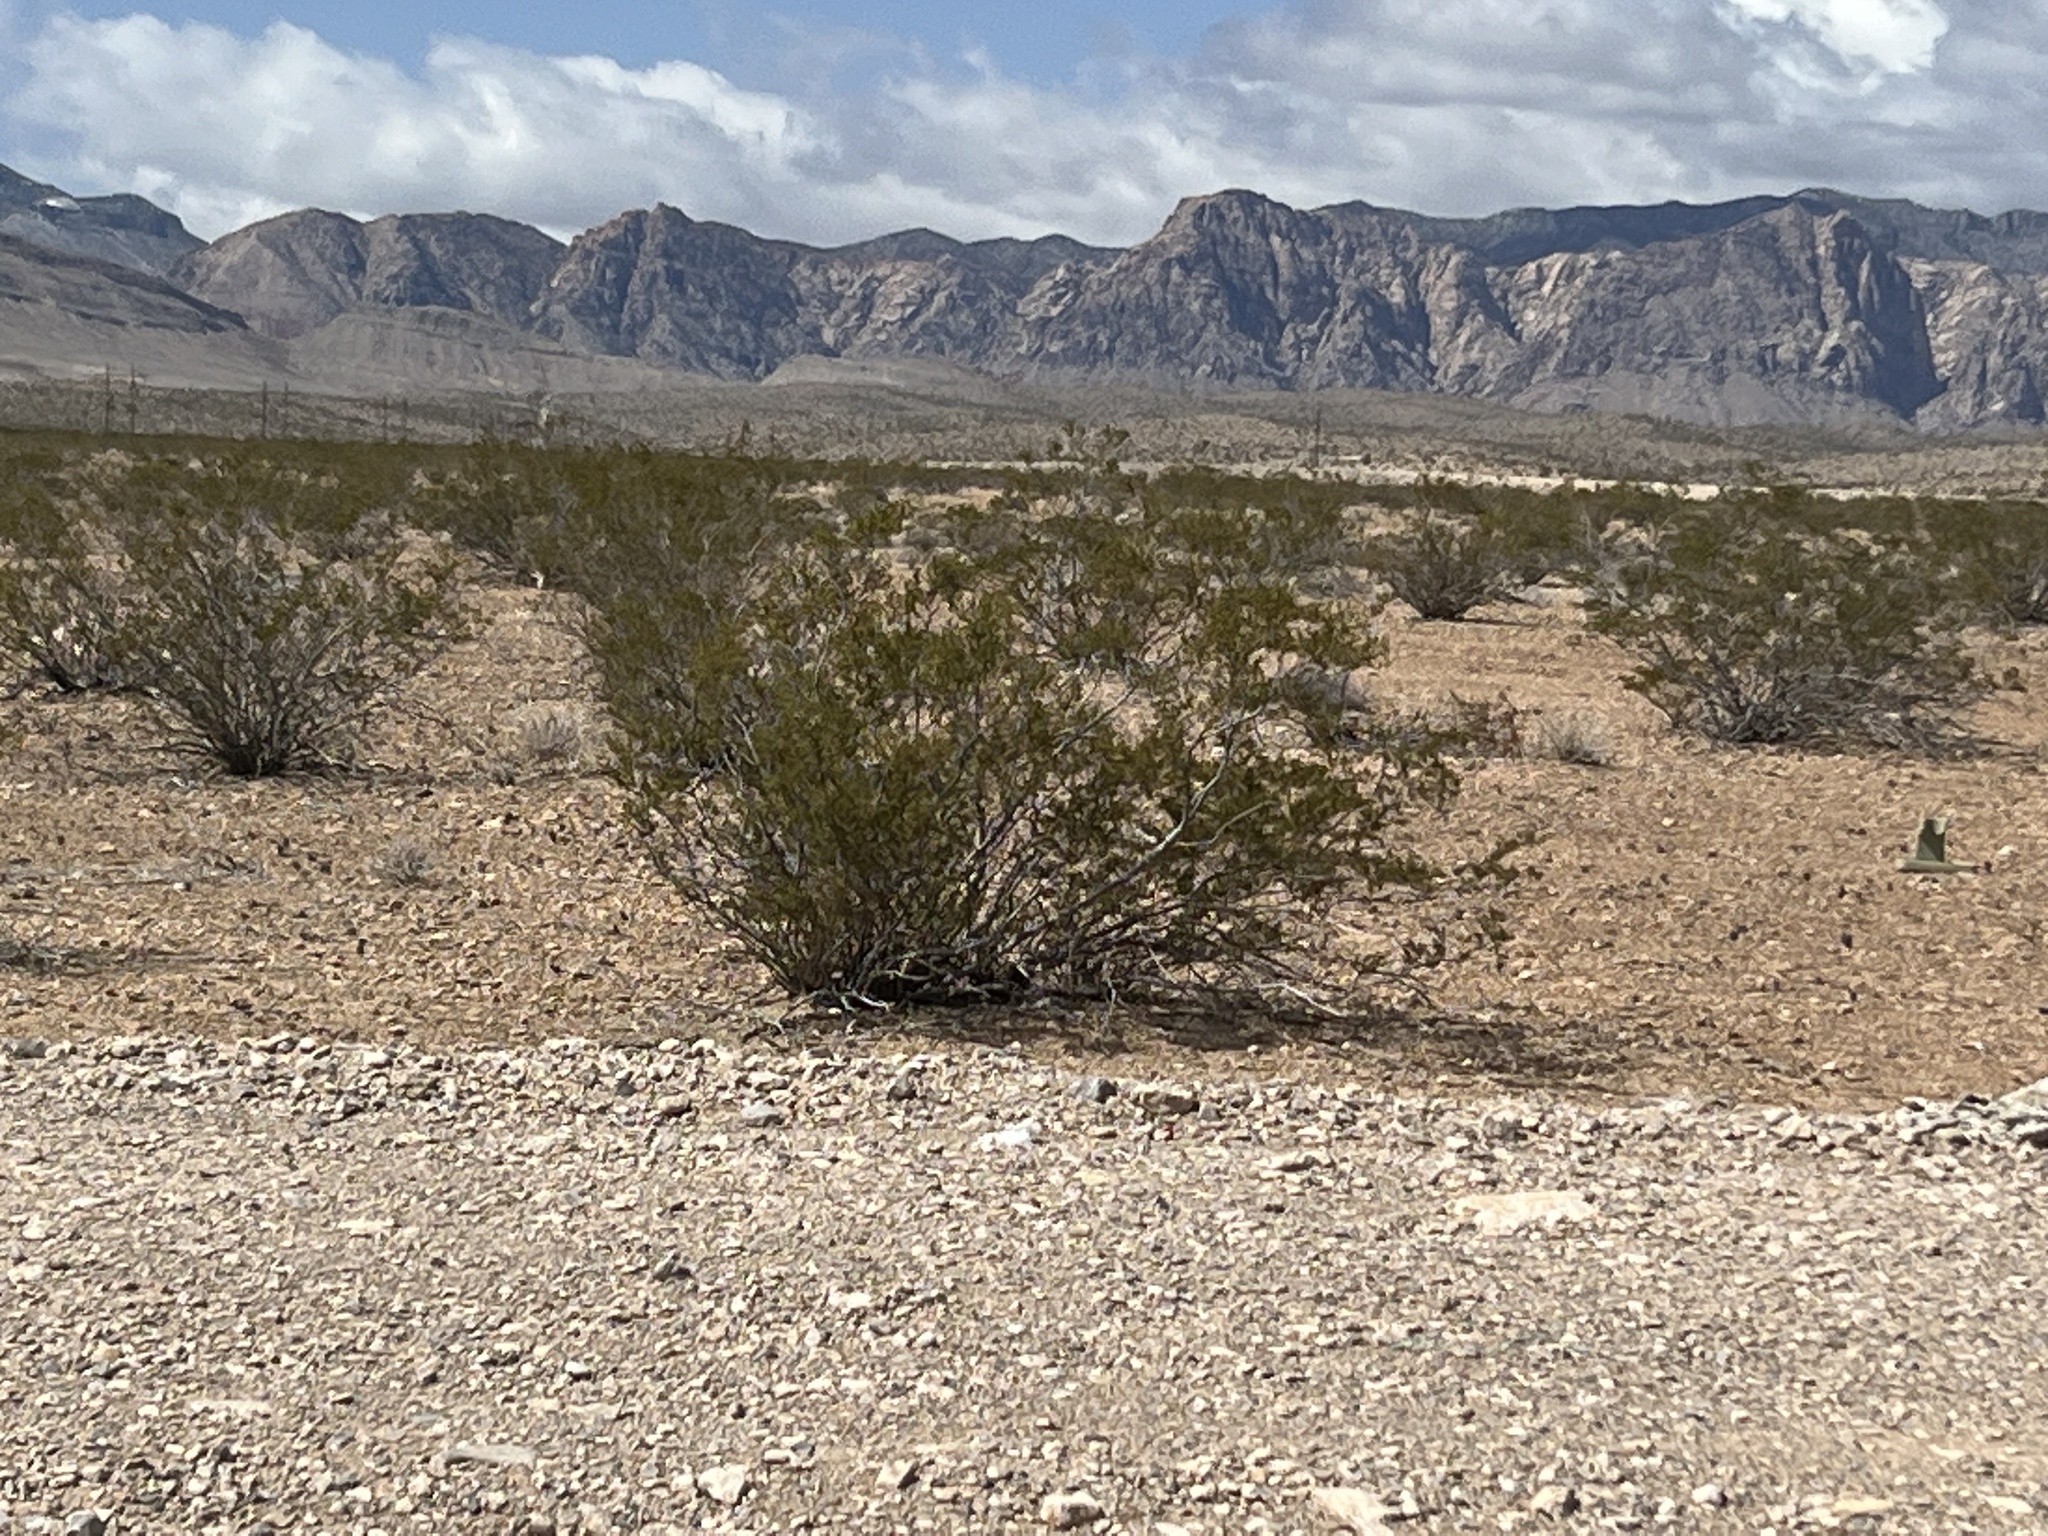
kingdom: Plantae
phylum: Tracheophyta
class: Magnoliopsida
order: Zygophyllales
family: Zygophyllaceae
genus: Larrea
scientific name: Larrea tridentata
